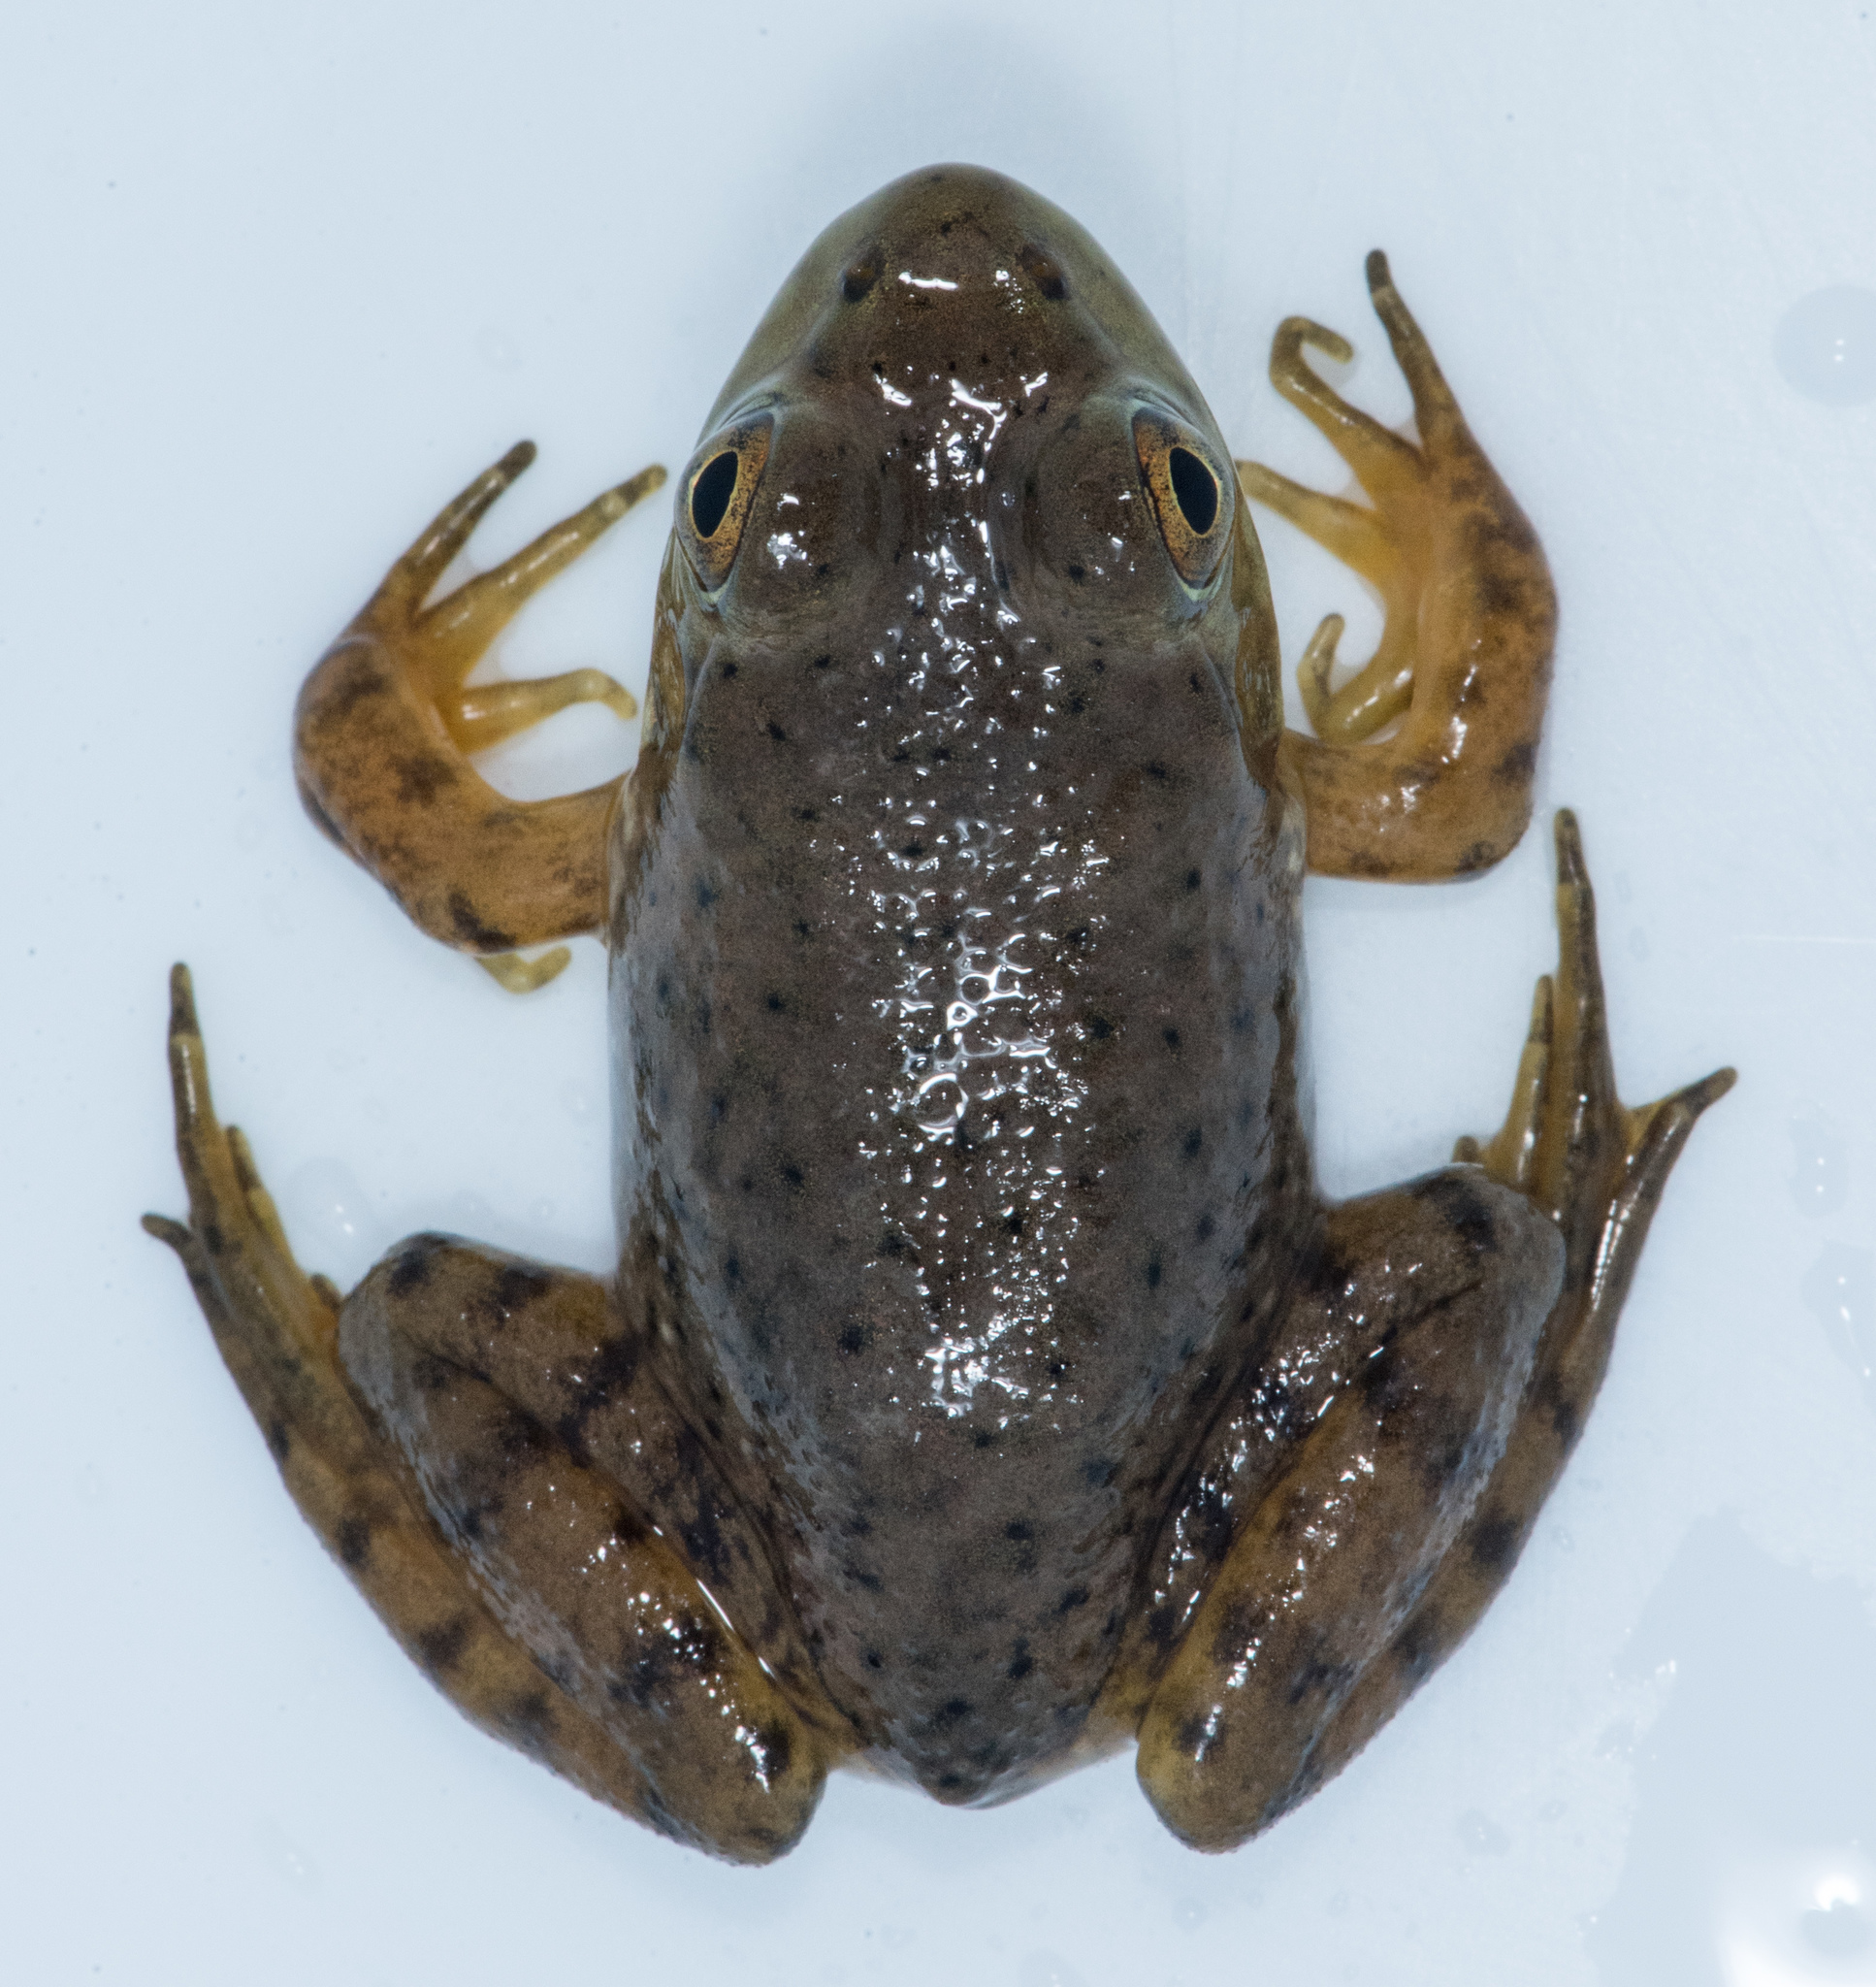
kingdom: Animalia
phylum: Chordata
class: Amphibia
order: Anura
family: Ranidae
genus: Lithobates
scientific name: Lithobates catesbeianus
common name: American bullfrog
